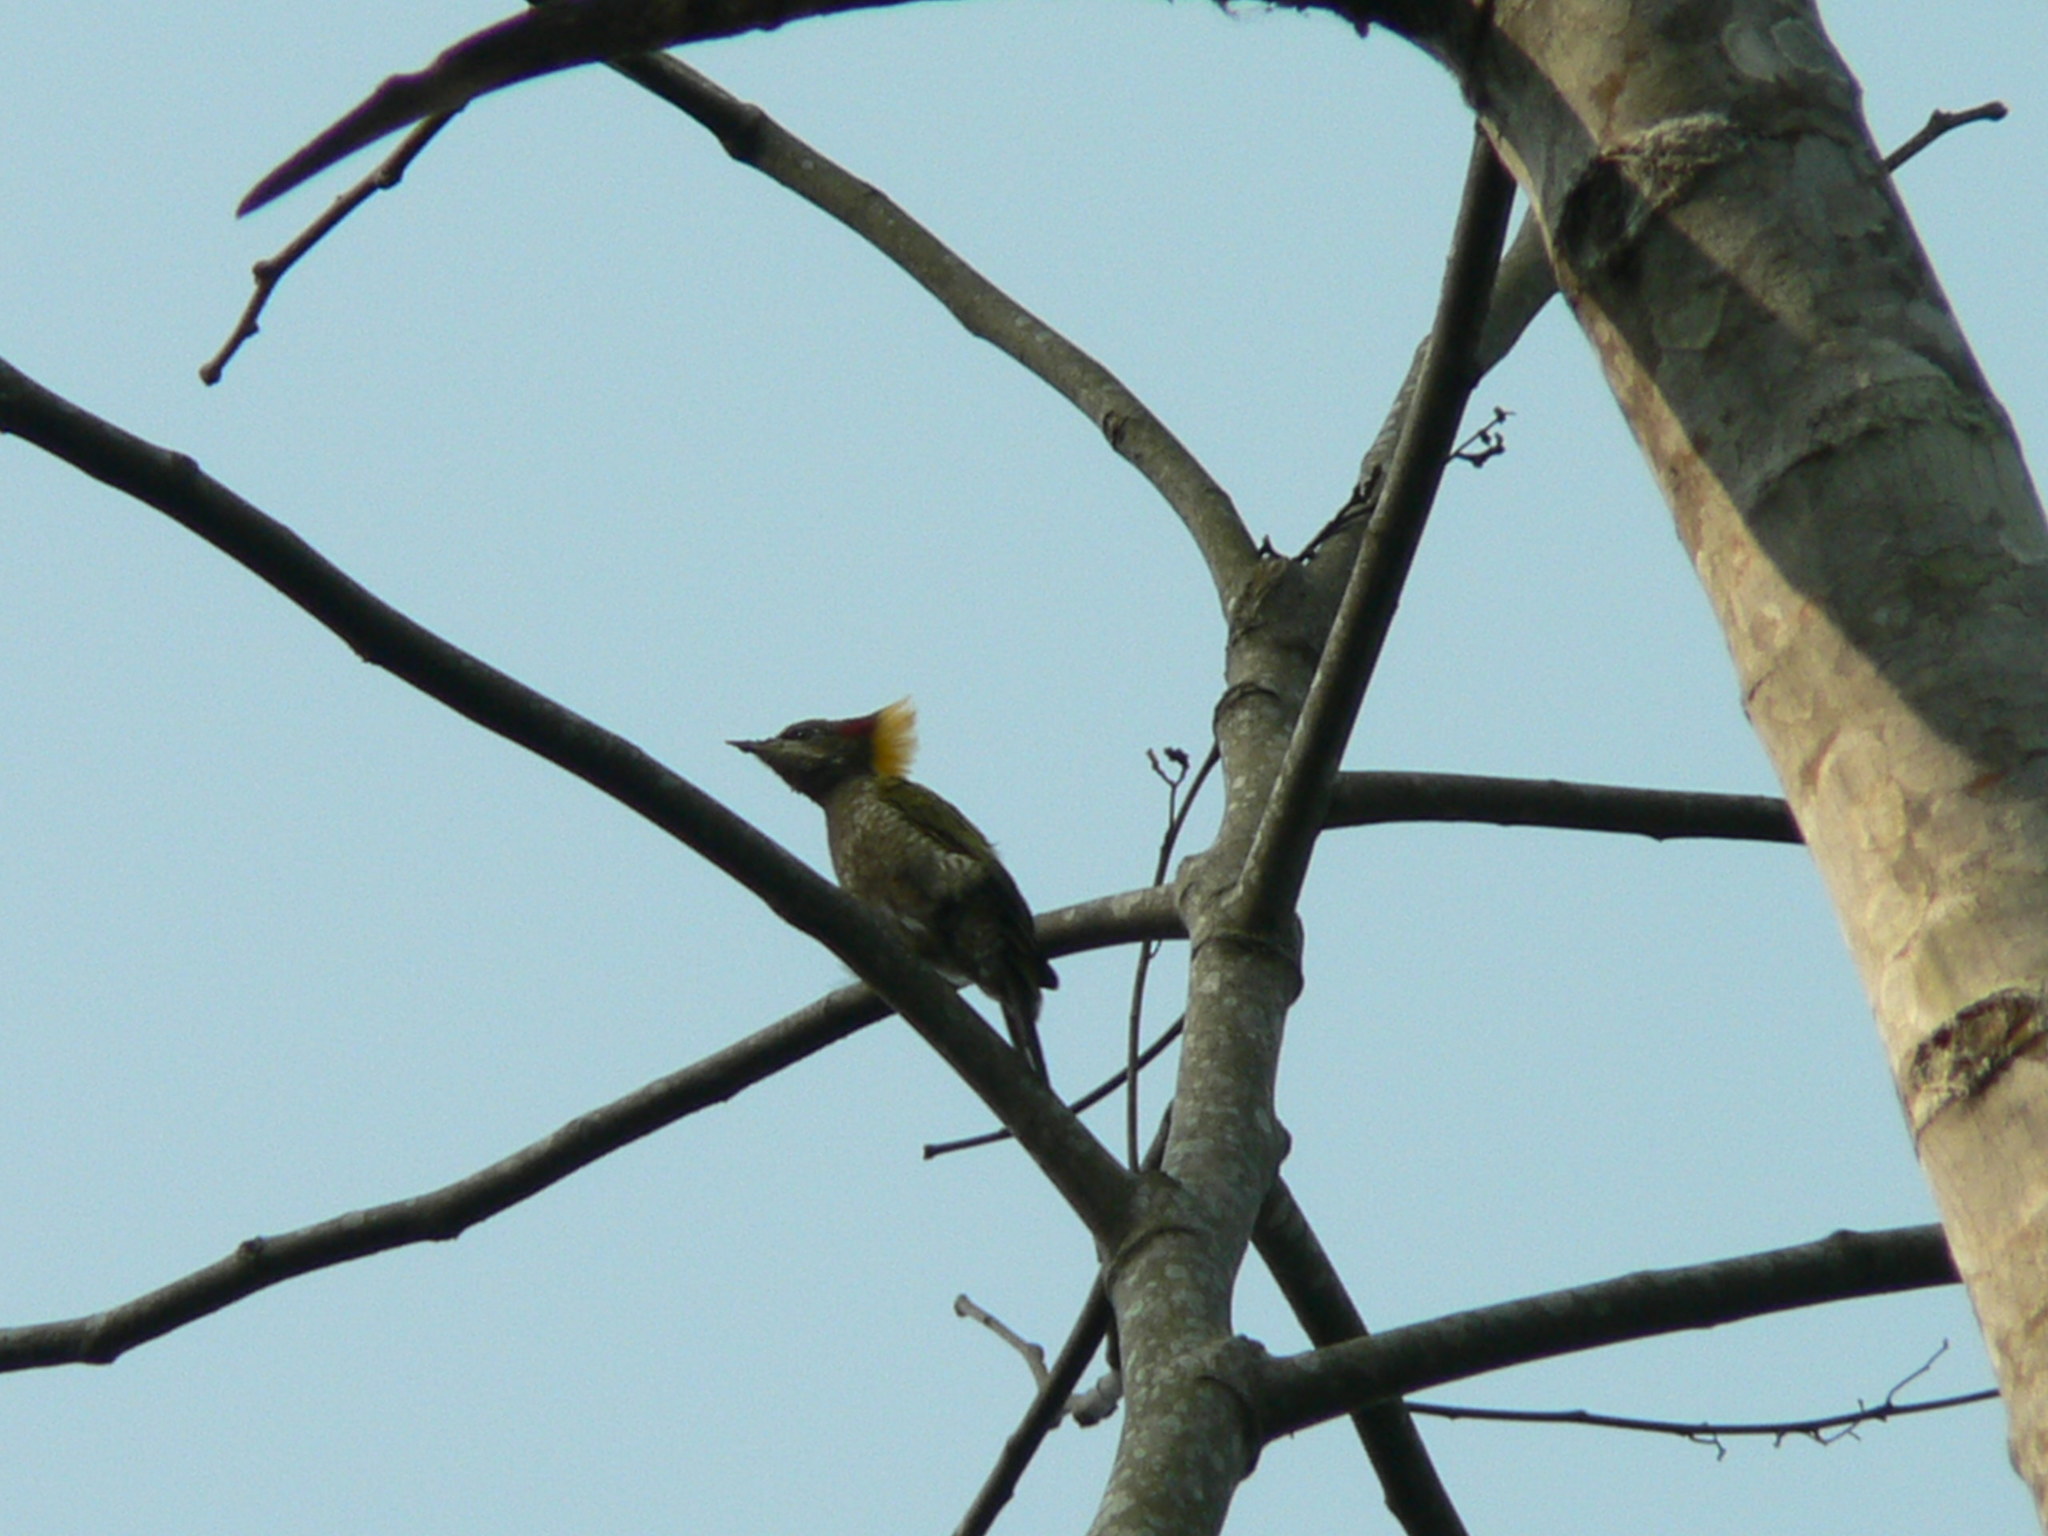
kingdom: Animalia
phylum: Chordata
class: Aves
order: Piciformes
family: Picidae
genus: Picus
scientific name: Picus chlorolophus
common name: Lesser yellownape
